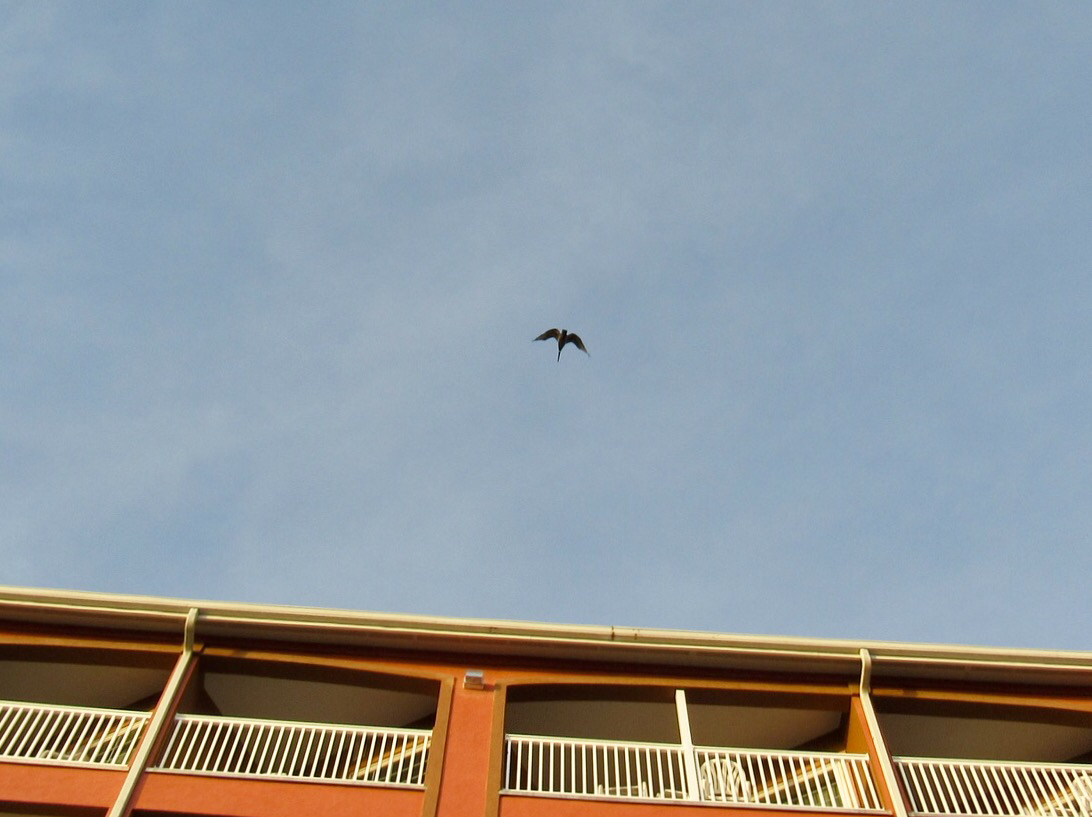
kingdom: Animalia
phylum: Chordata
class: Aves
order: Pelecaniformes
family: Pelecanidae
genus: Pelecanus
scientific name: Pelecanus occidentalis
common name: Brown pelican
